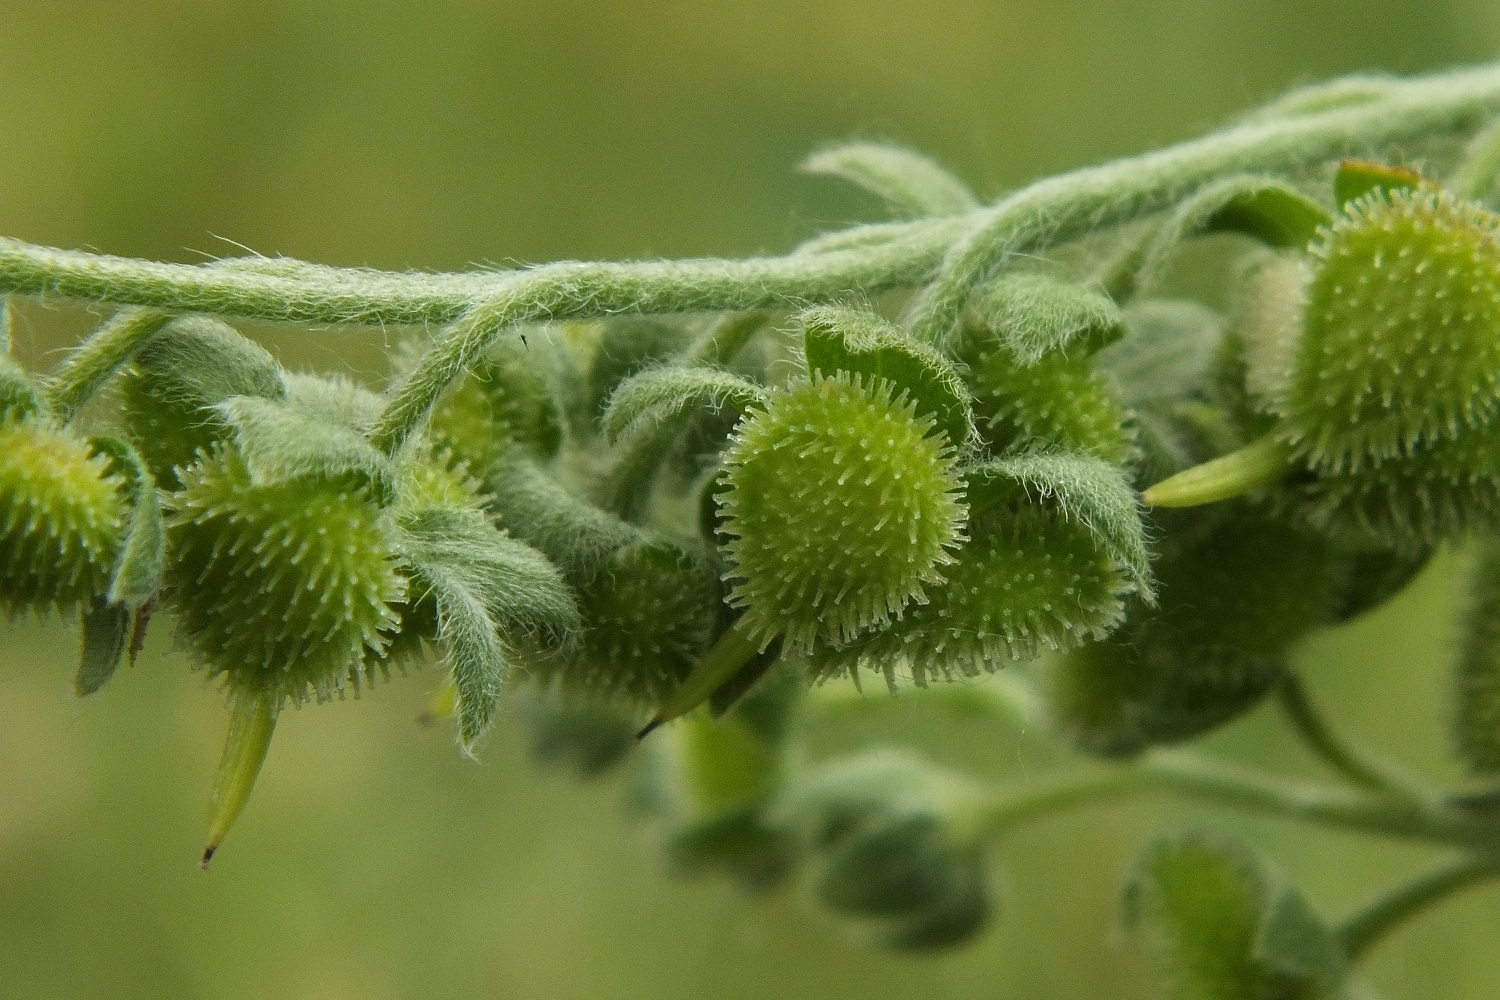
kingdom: Plantae
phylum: Tracheophyta
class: Magnoliopsida
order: Boraginales
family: Boraginaceae
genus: Cynoglossum
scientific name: Cynoglossum officinale
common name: Hound's-tongue
